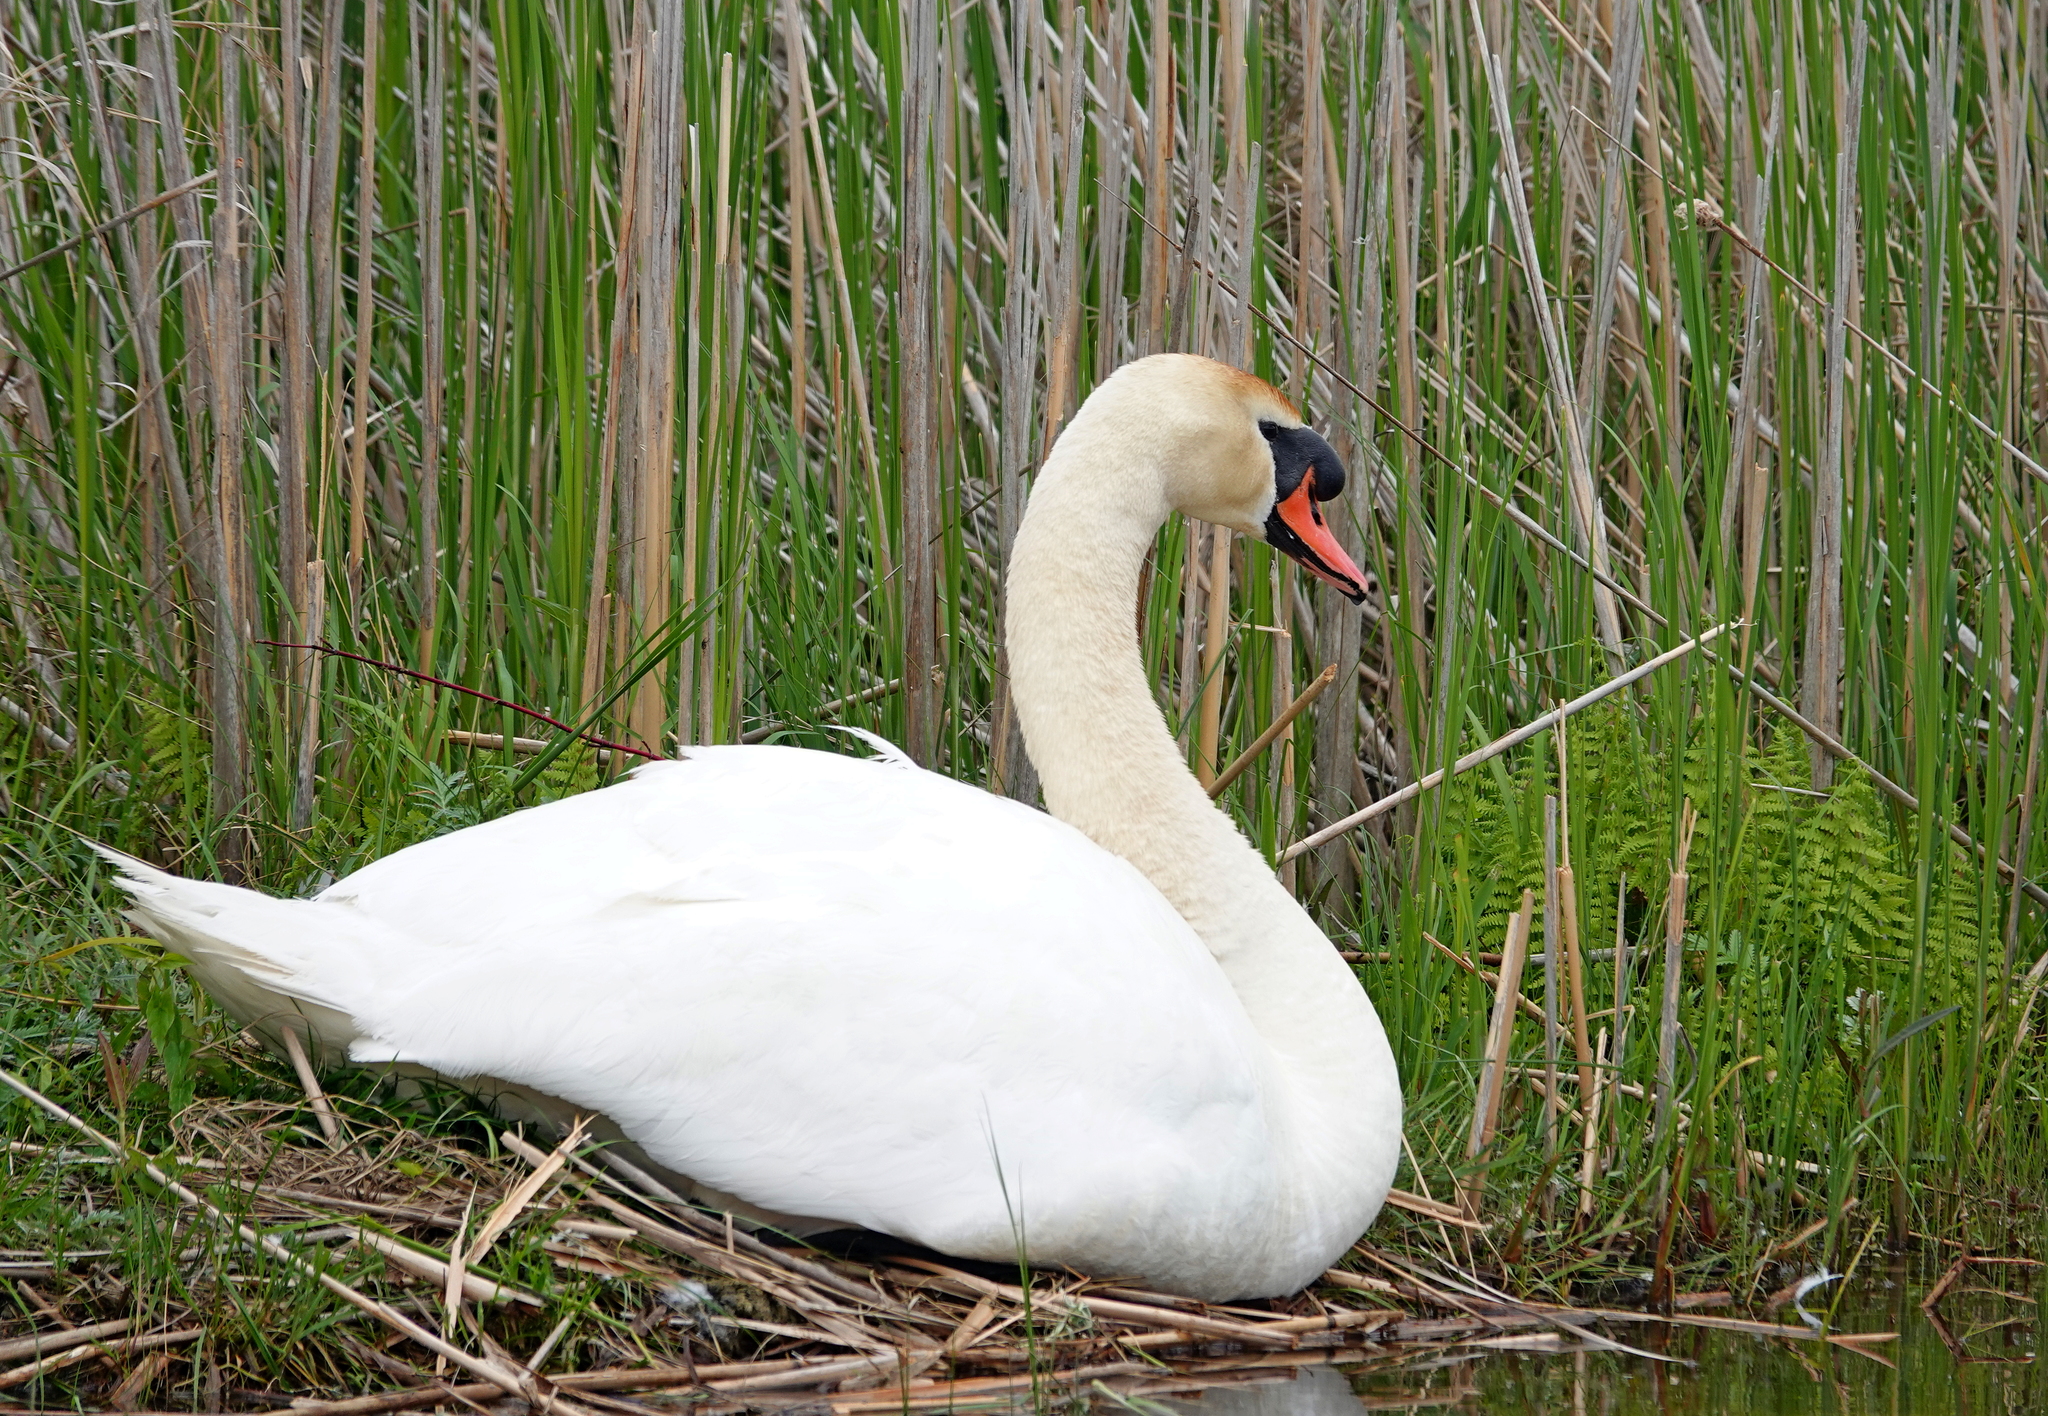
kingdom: Animalia
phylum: Chordata
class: Aves
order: Anseriformes
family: Anatidae
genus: Cygnus
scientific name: Cygnus olor
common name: Mute swan
